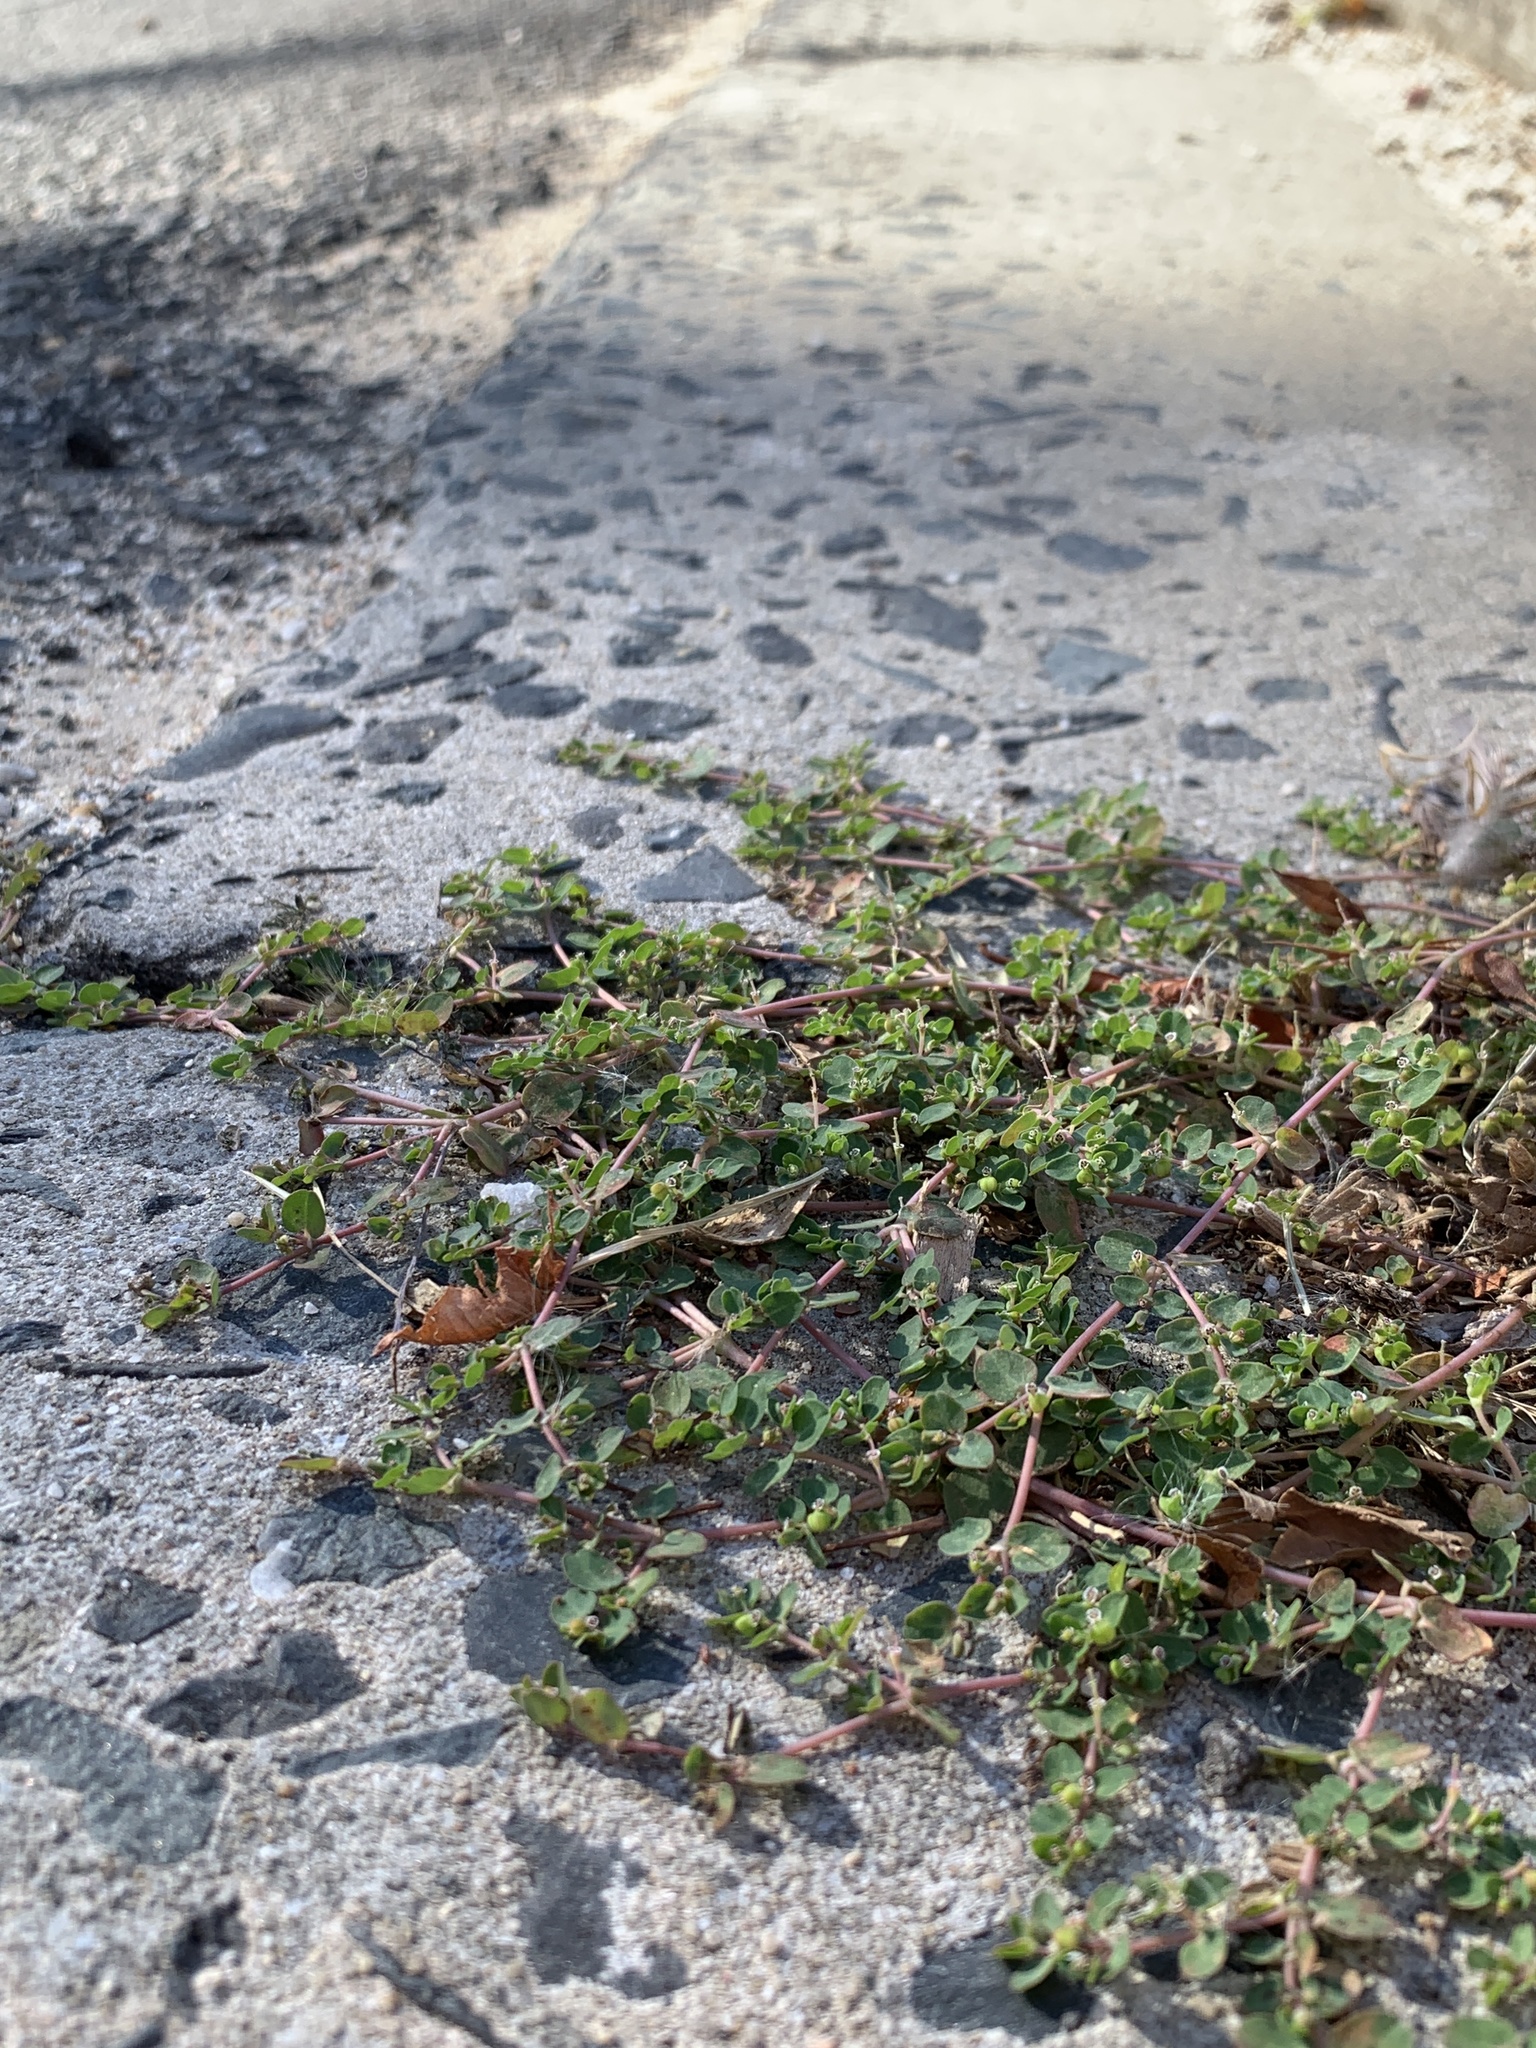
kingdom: Plantae
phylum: Tracheophyta
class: Magnoliopsida
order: Malpighiales
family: Euphorbiaceae
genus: Euphorbia
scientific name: Euphorbia serpens
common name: Matted sandmat
